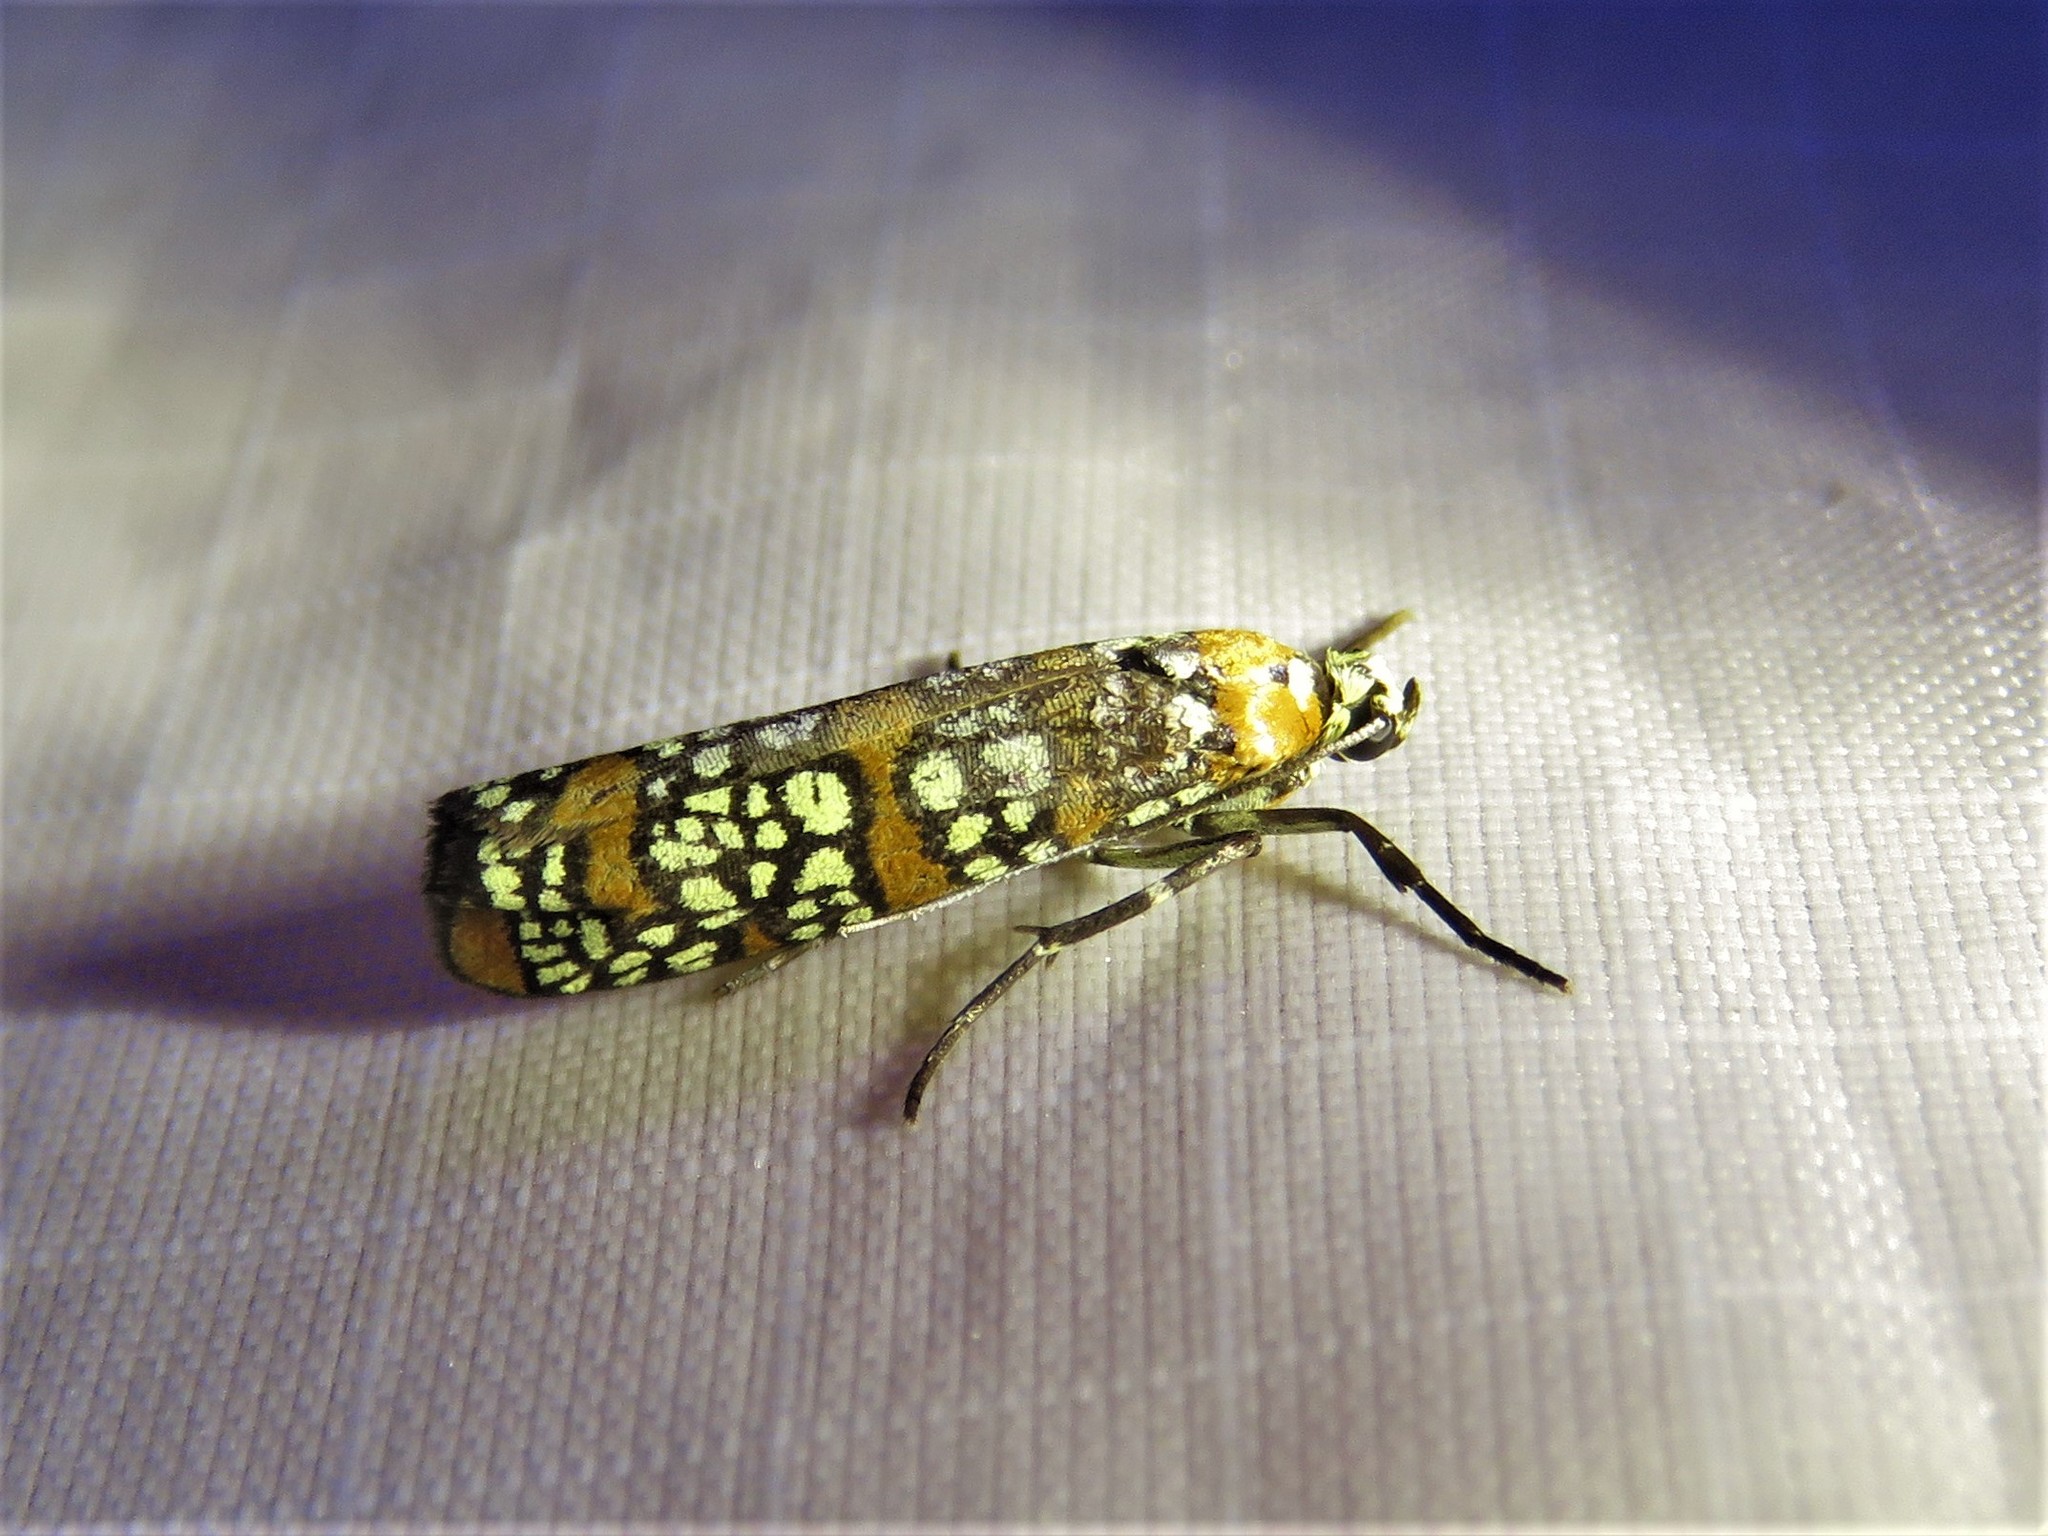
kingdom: Animalia
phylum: Arthropoda
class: Insecta
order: Lepidoptera
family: Attevidae
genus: Atteva
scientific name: Atteva punctella
